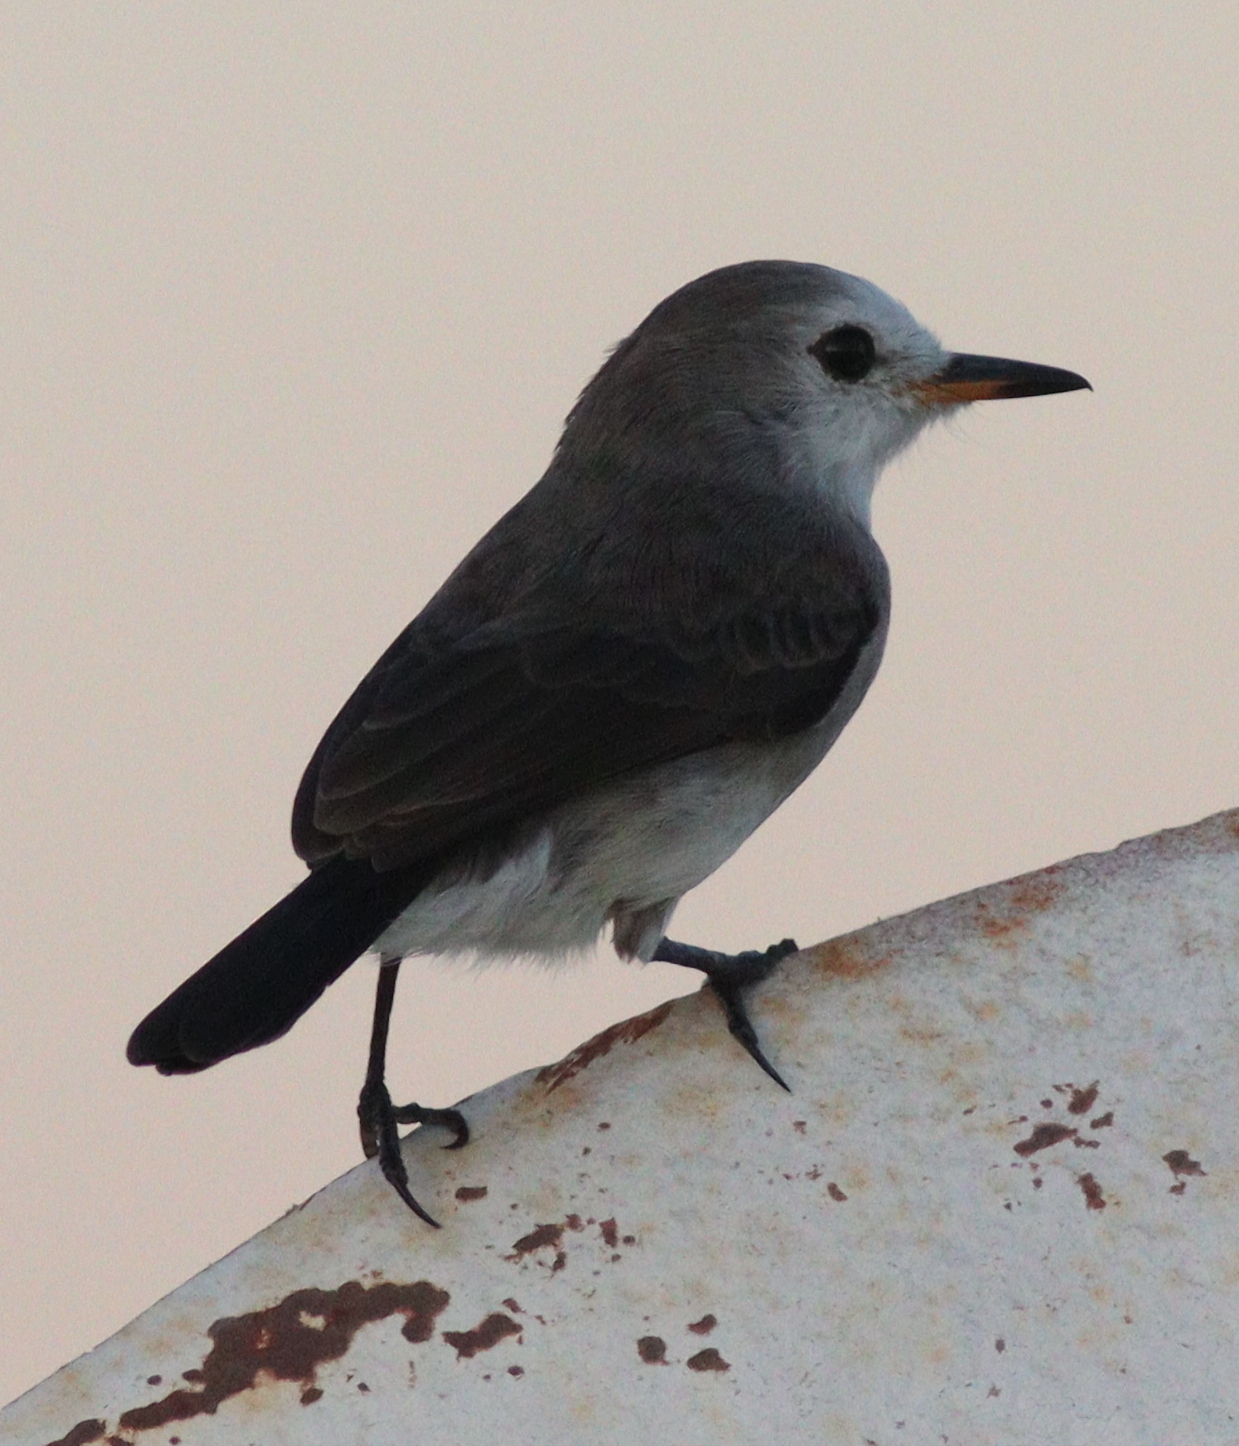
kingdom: Animalia
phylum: Chordata
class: Aves
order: Passeriformes
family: Tyrannidae
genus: Arundinicola
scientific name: Arundinicola leucocephala
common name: White-headed marsh tyrant
